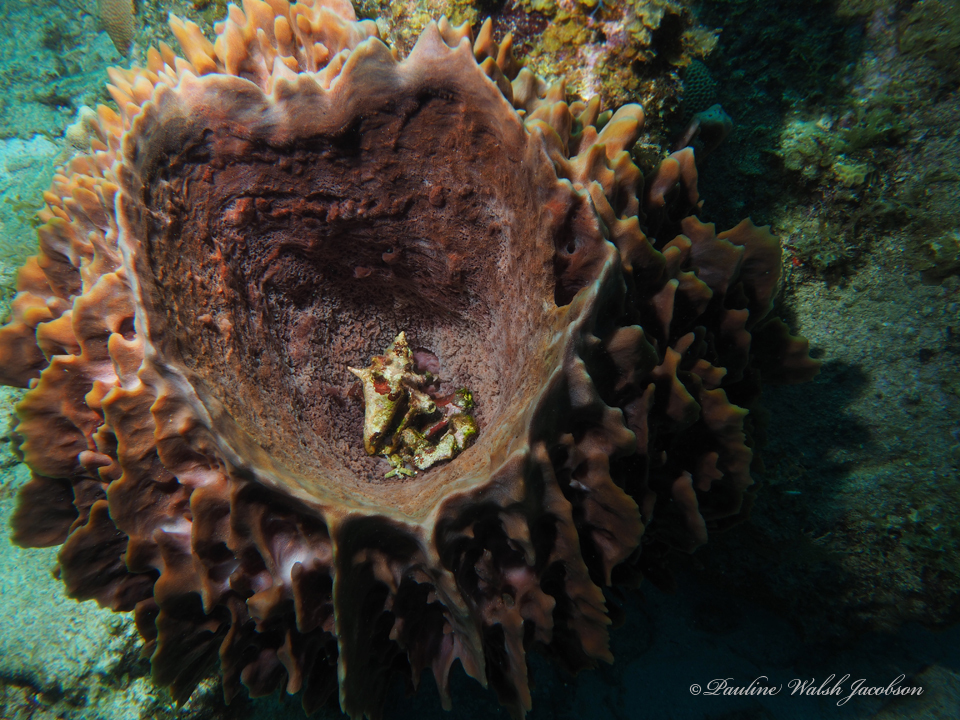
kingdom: Animalia
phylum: Porifera
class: Demospongiae
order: Haplosclerida
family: Petrosiidae
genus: Xestospongia
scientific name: Xestospongia muta
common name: Giant barrel sponge
